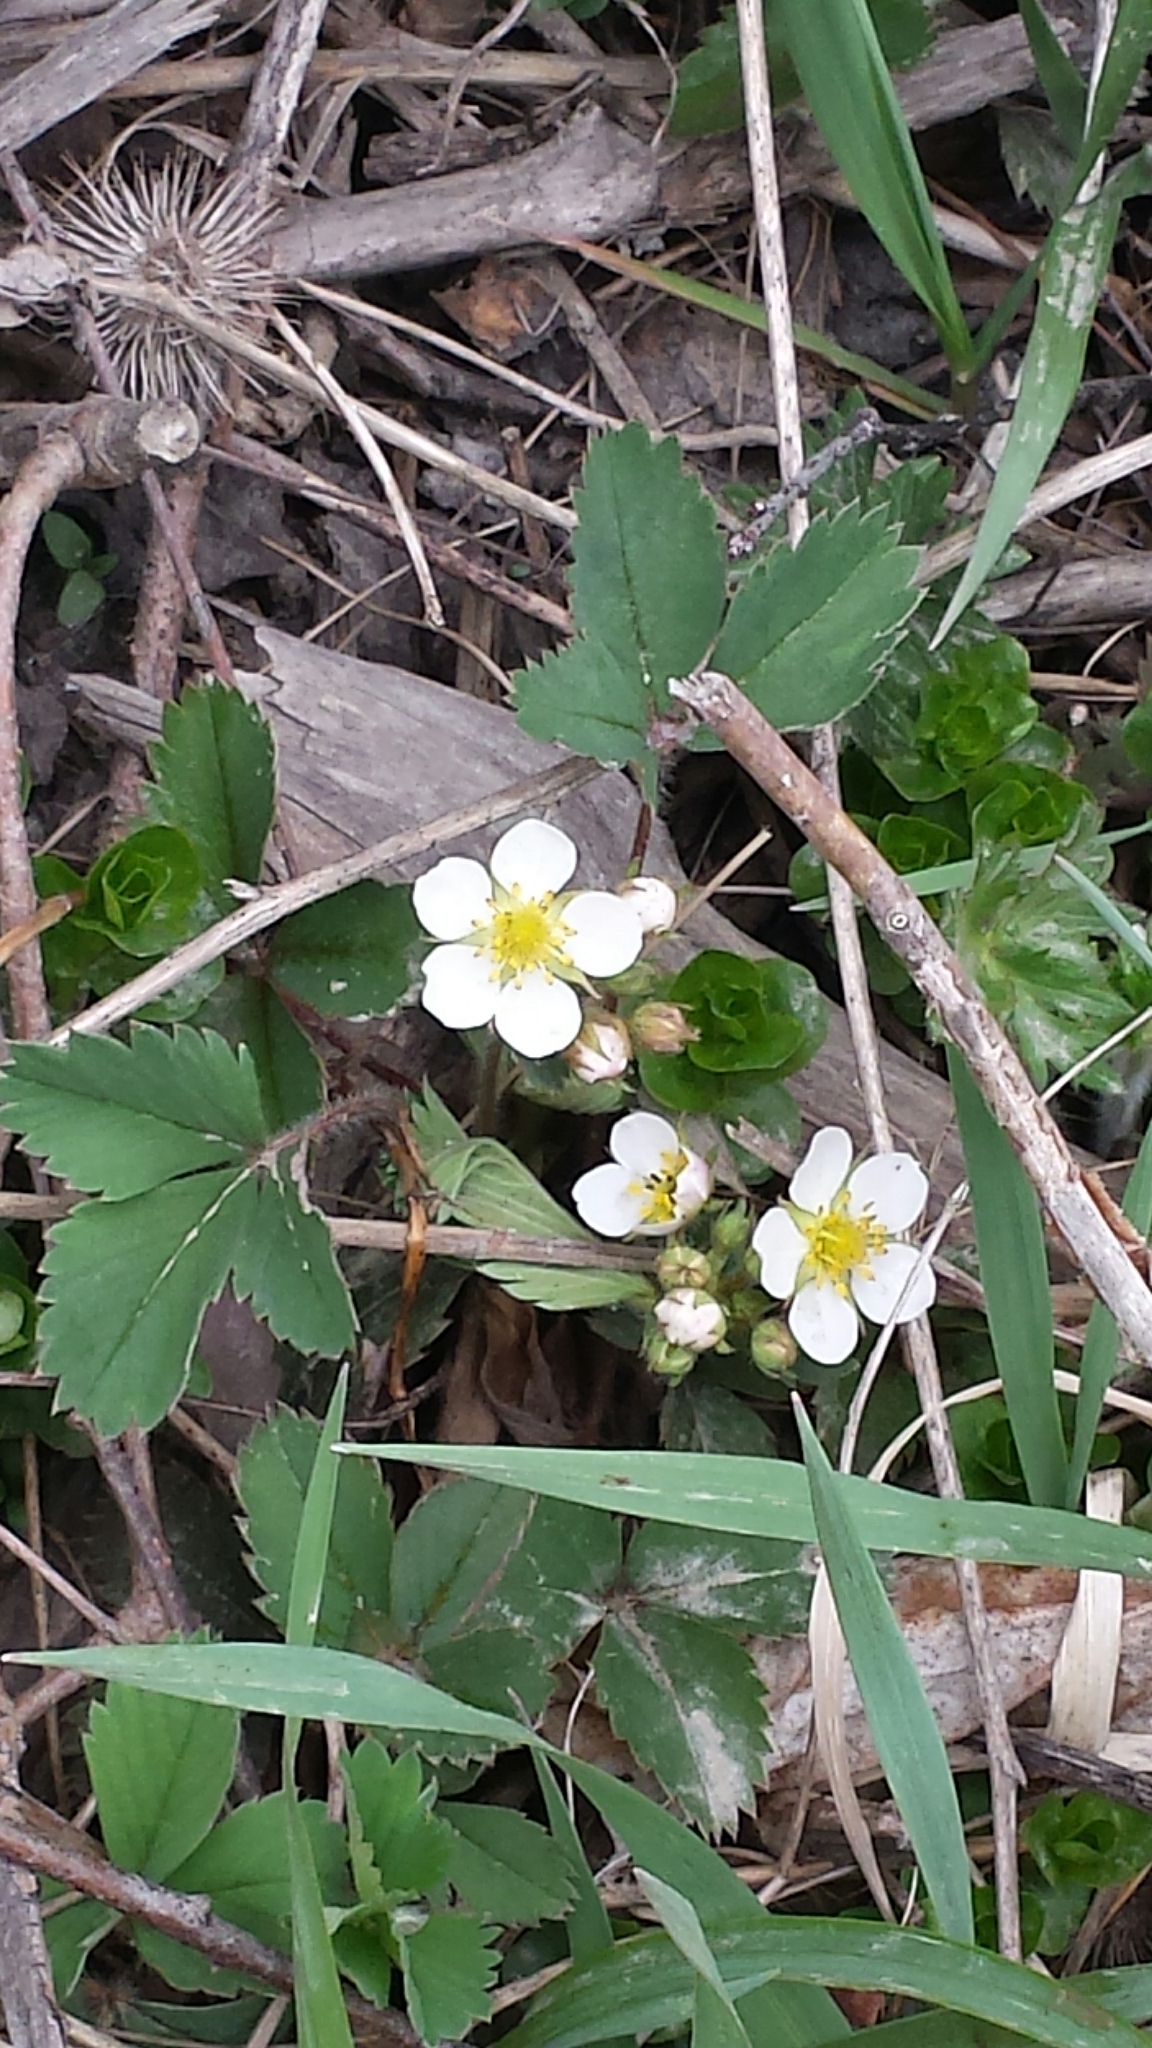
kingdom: Plantae
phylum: Tracheophyta
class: Magnoliopsida
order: Rosales
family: Rosaceae
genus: Fragaria
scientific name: Fragaria virginiana
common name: Thickleaved wild strawberry
